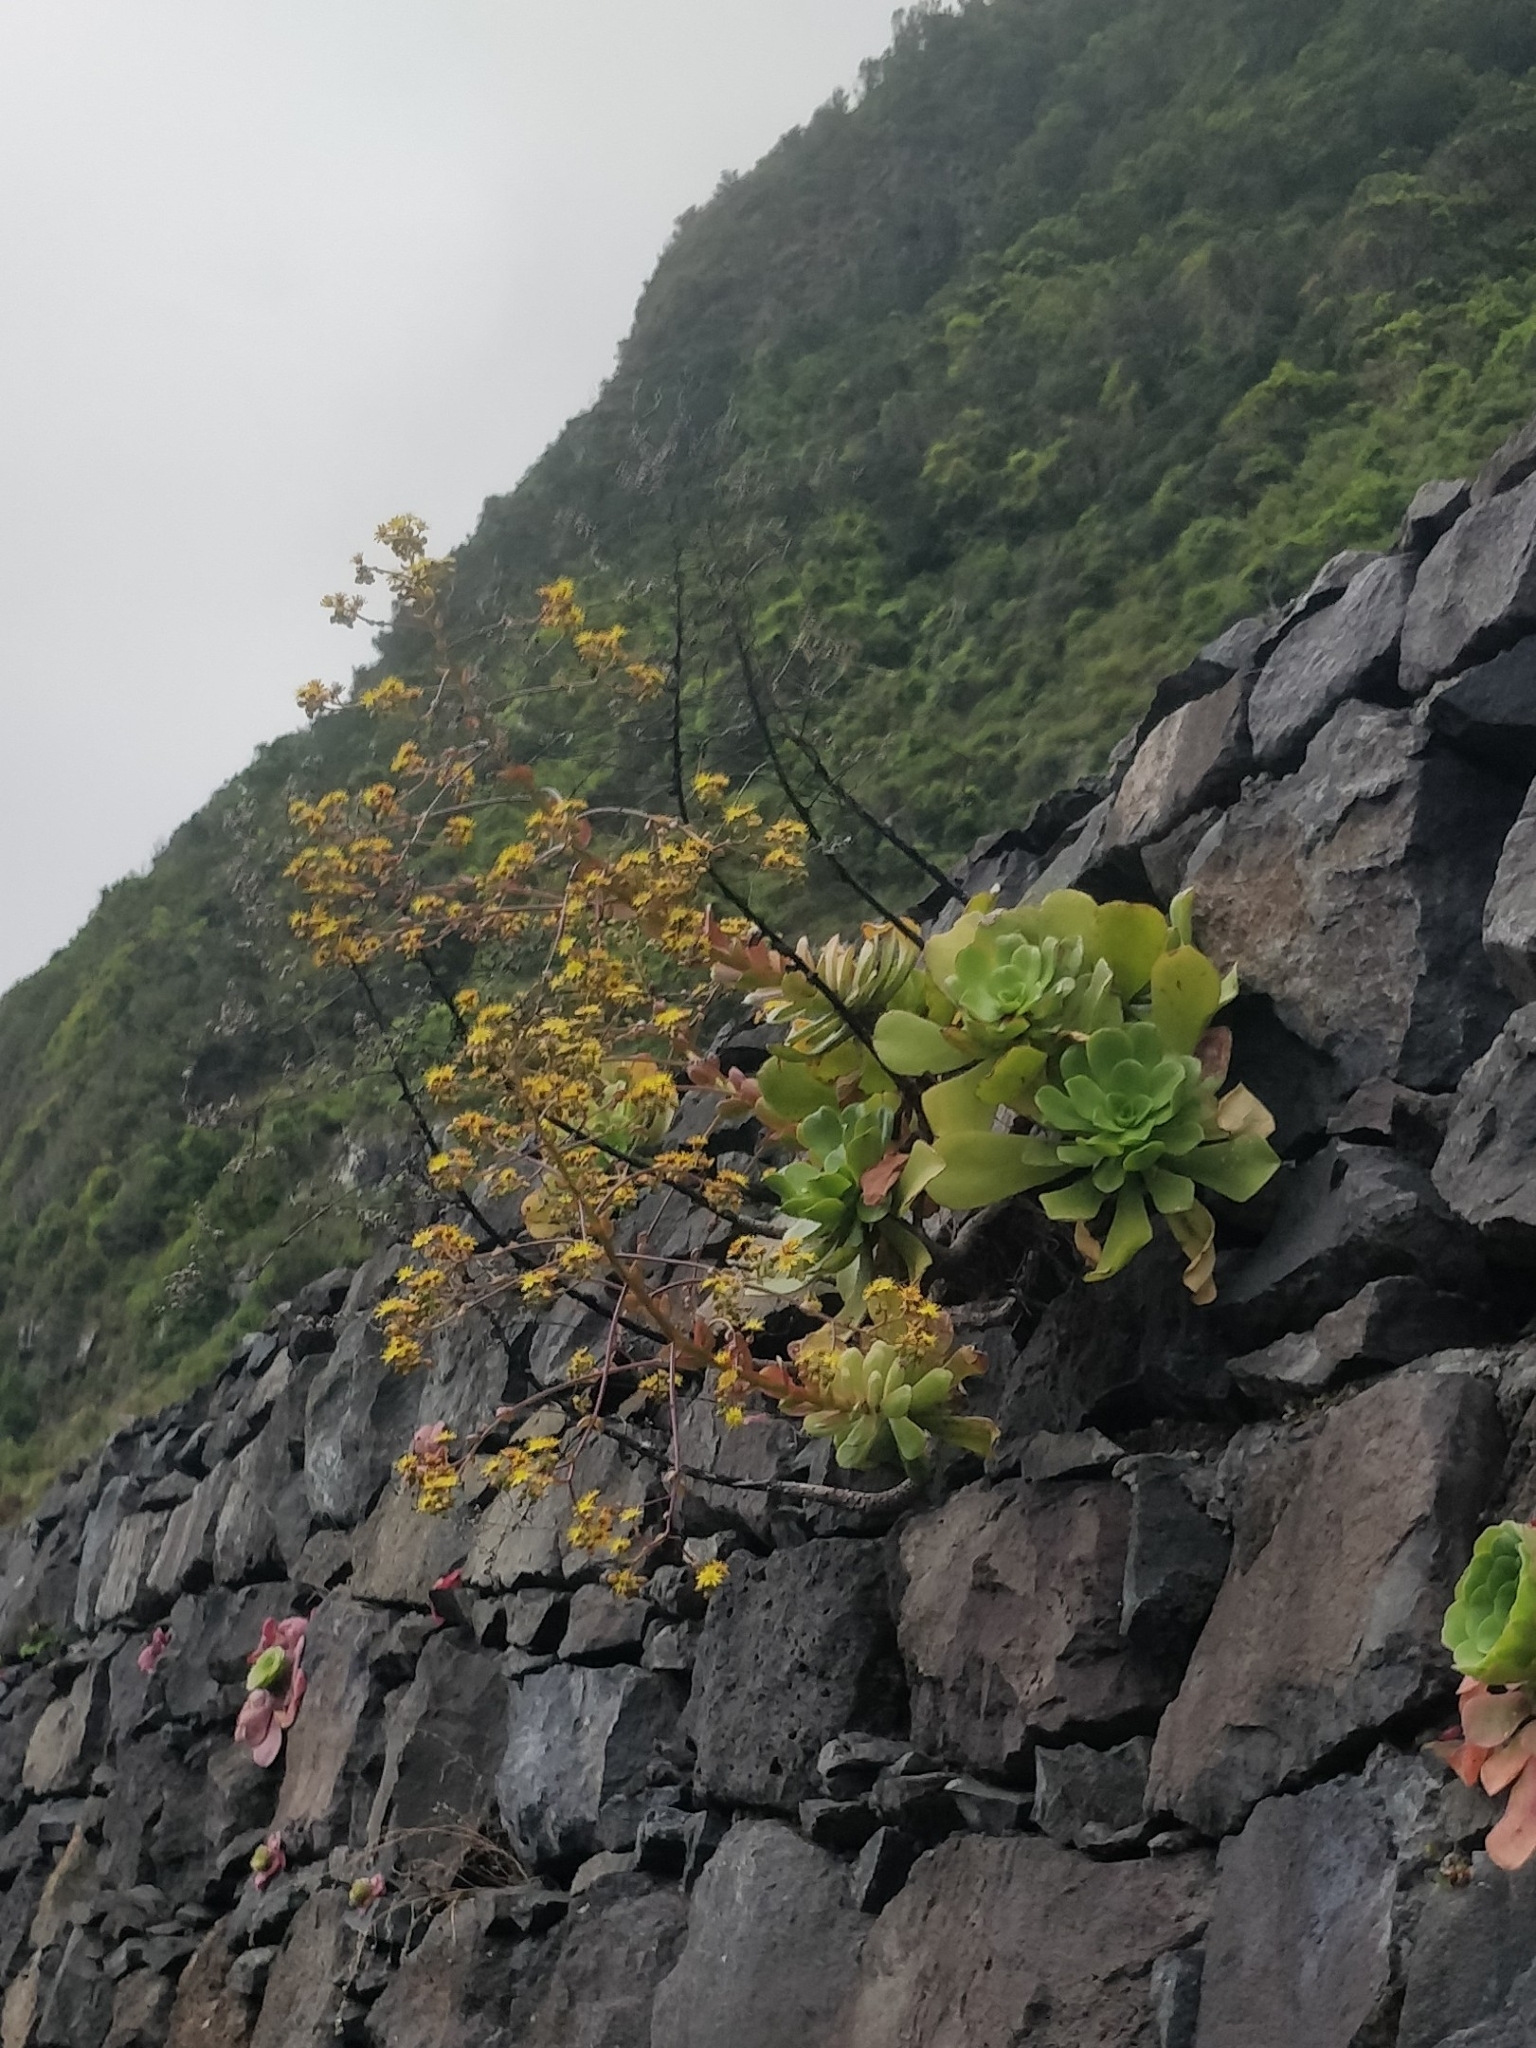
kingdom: Plantae
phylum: Tracheophyta
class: Magnoliopsida
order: Saxifragales
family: Crassulaceae
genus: Aeonium
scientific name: Aeonium glutinosum
